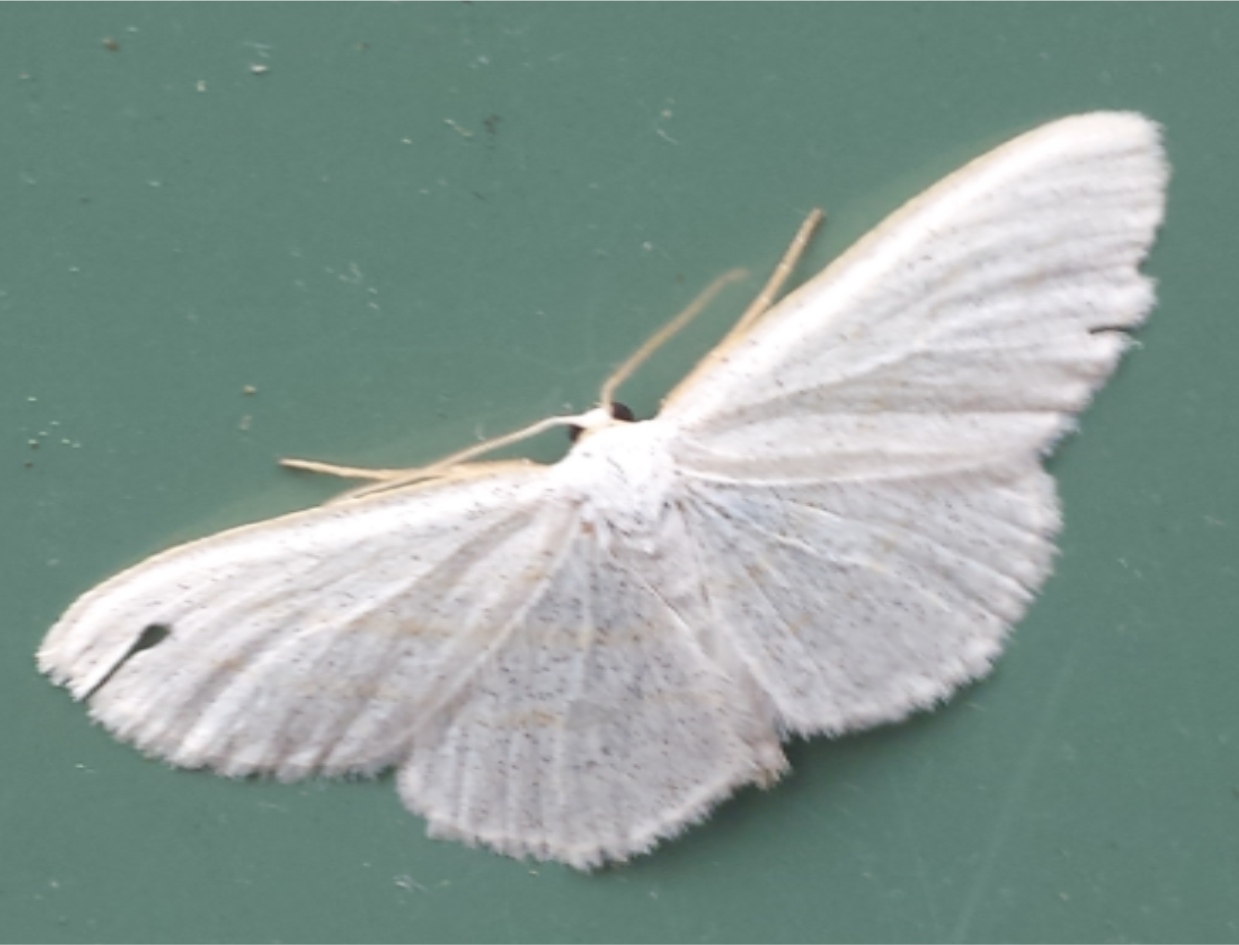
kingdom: Animalia
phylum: Arthropoda
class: Insecta
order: Lepidoptera
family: Geometridae
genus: Cabera
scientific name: Cabera variolaria
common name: Pink-striped willow spanworm
